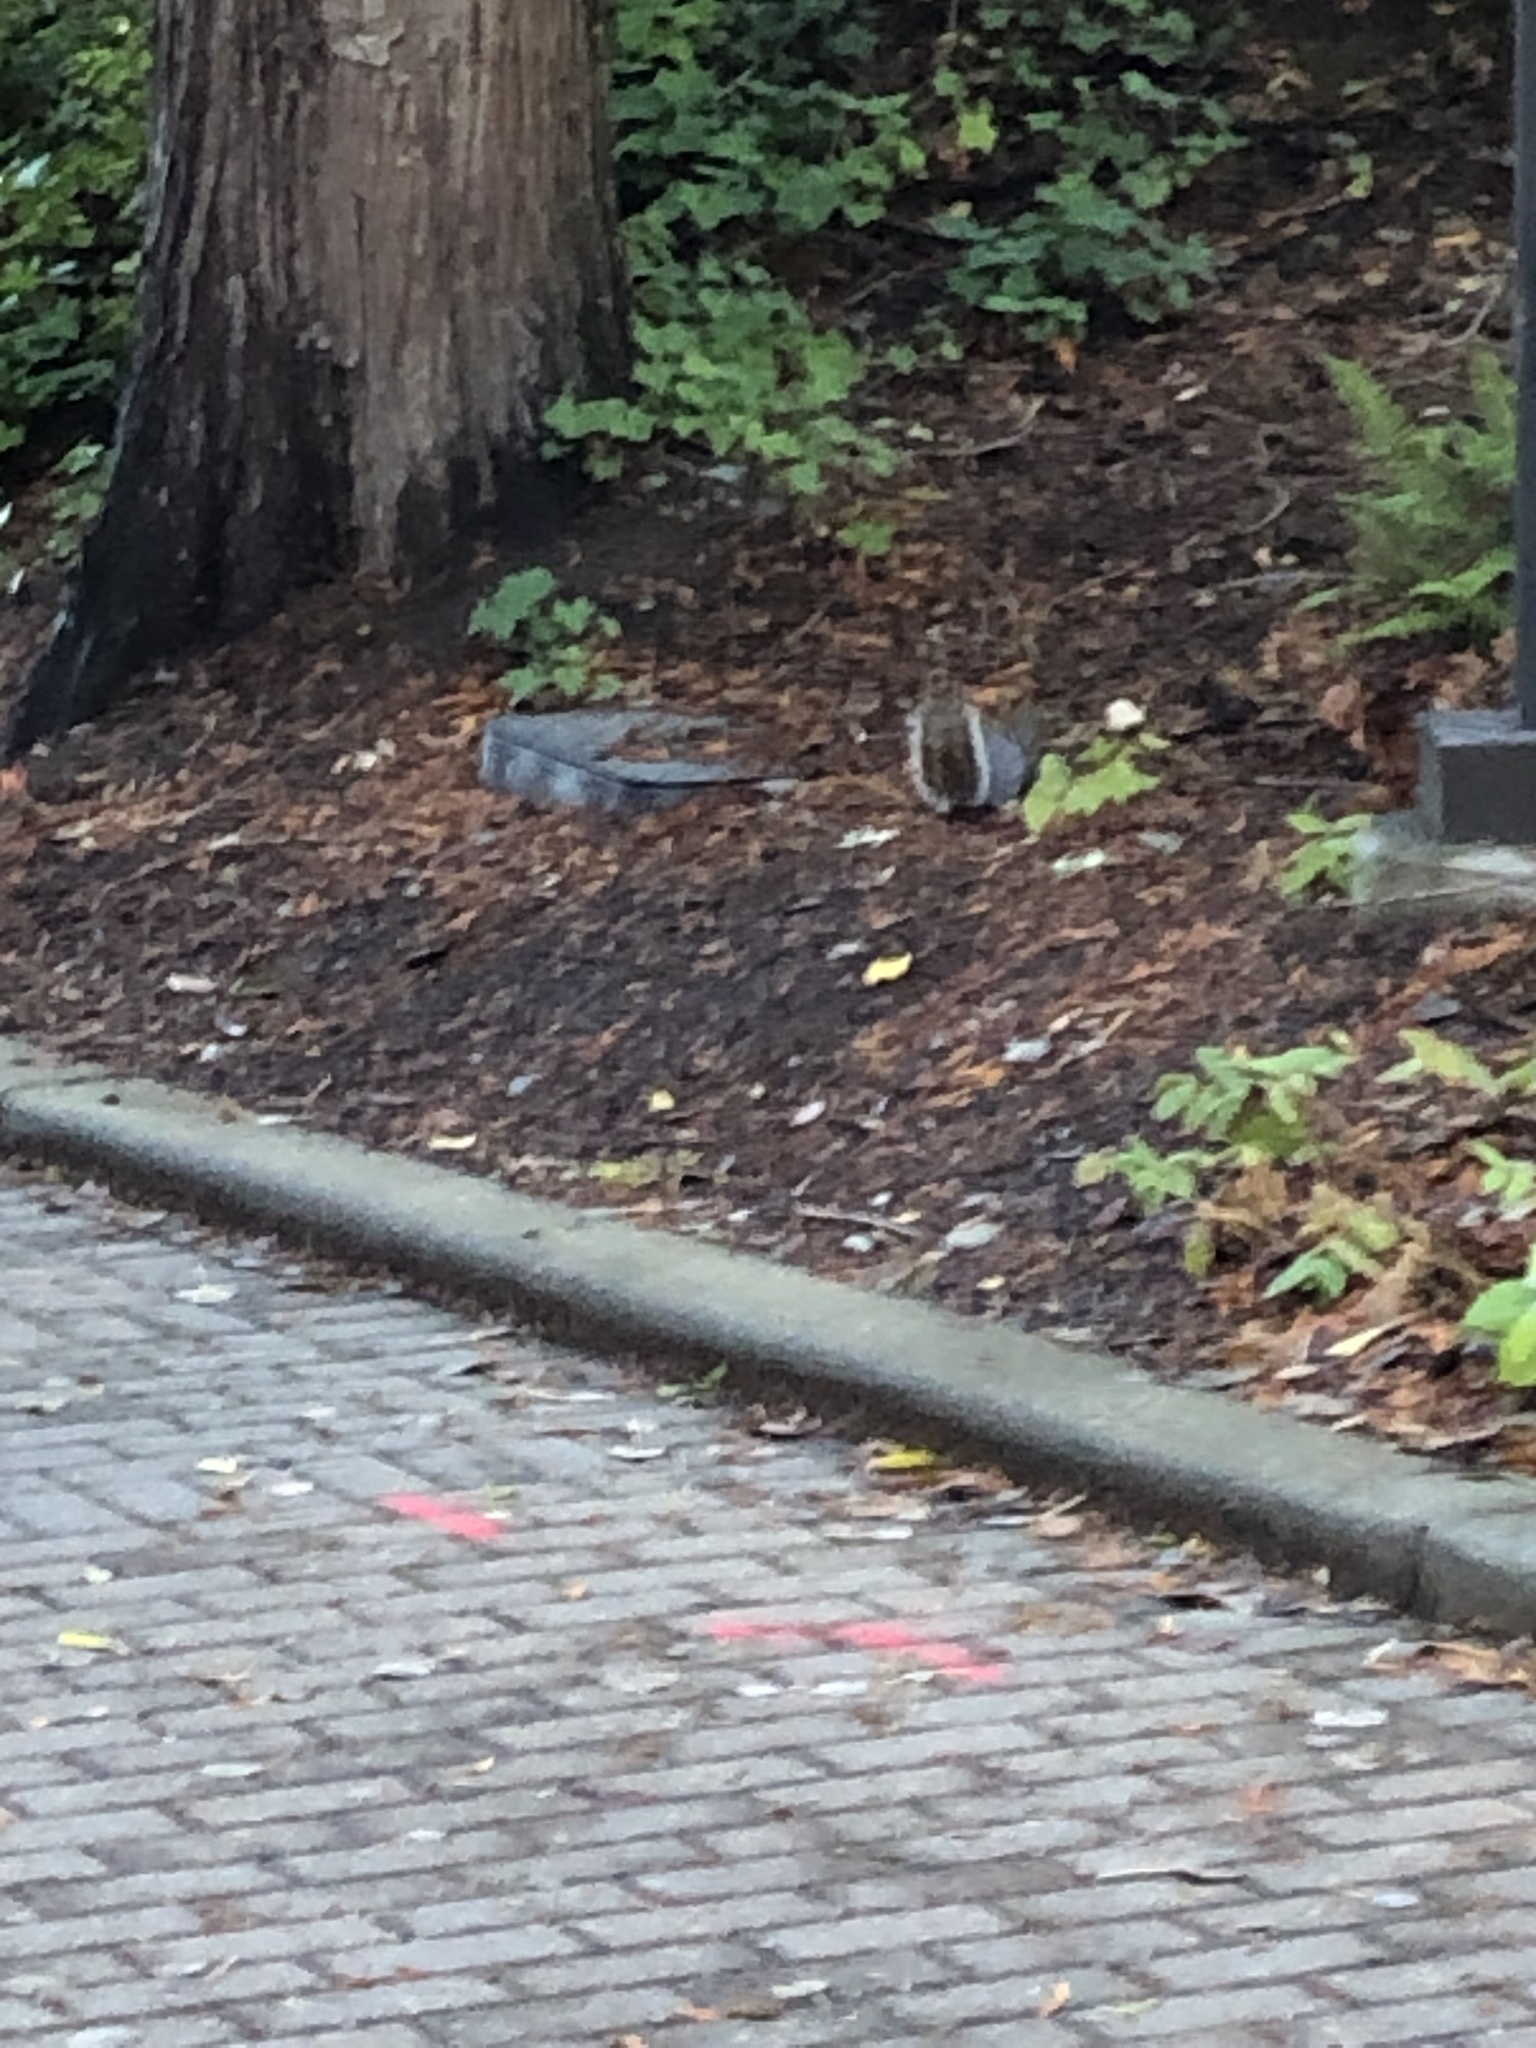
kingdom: Animalia
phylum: Chordata
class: Mammalia
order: Rodentia
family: Sciuridae
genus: Sciurus
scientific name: Sciurus carolinensis
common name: Eastern gray squirrel
